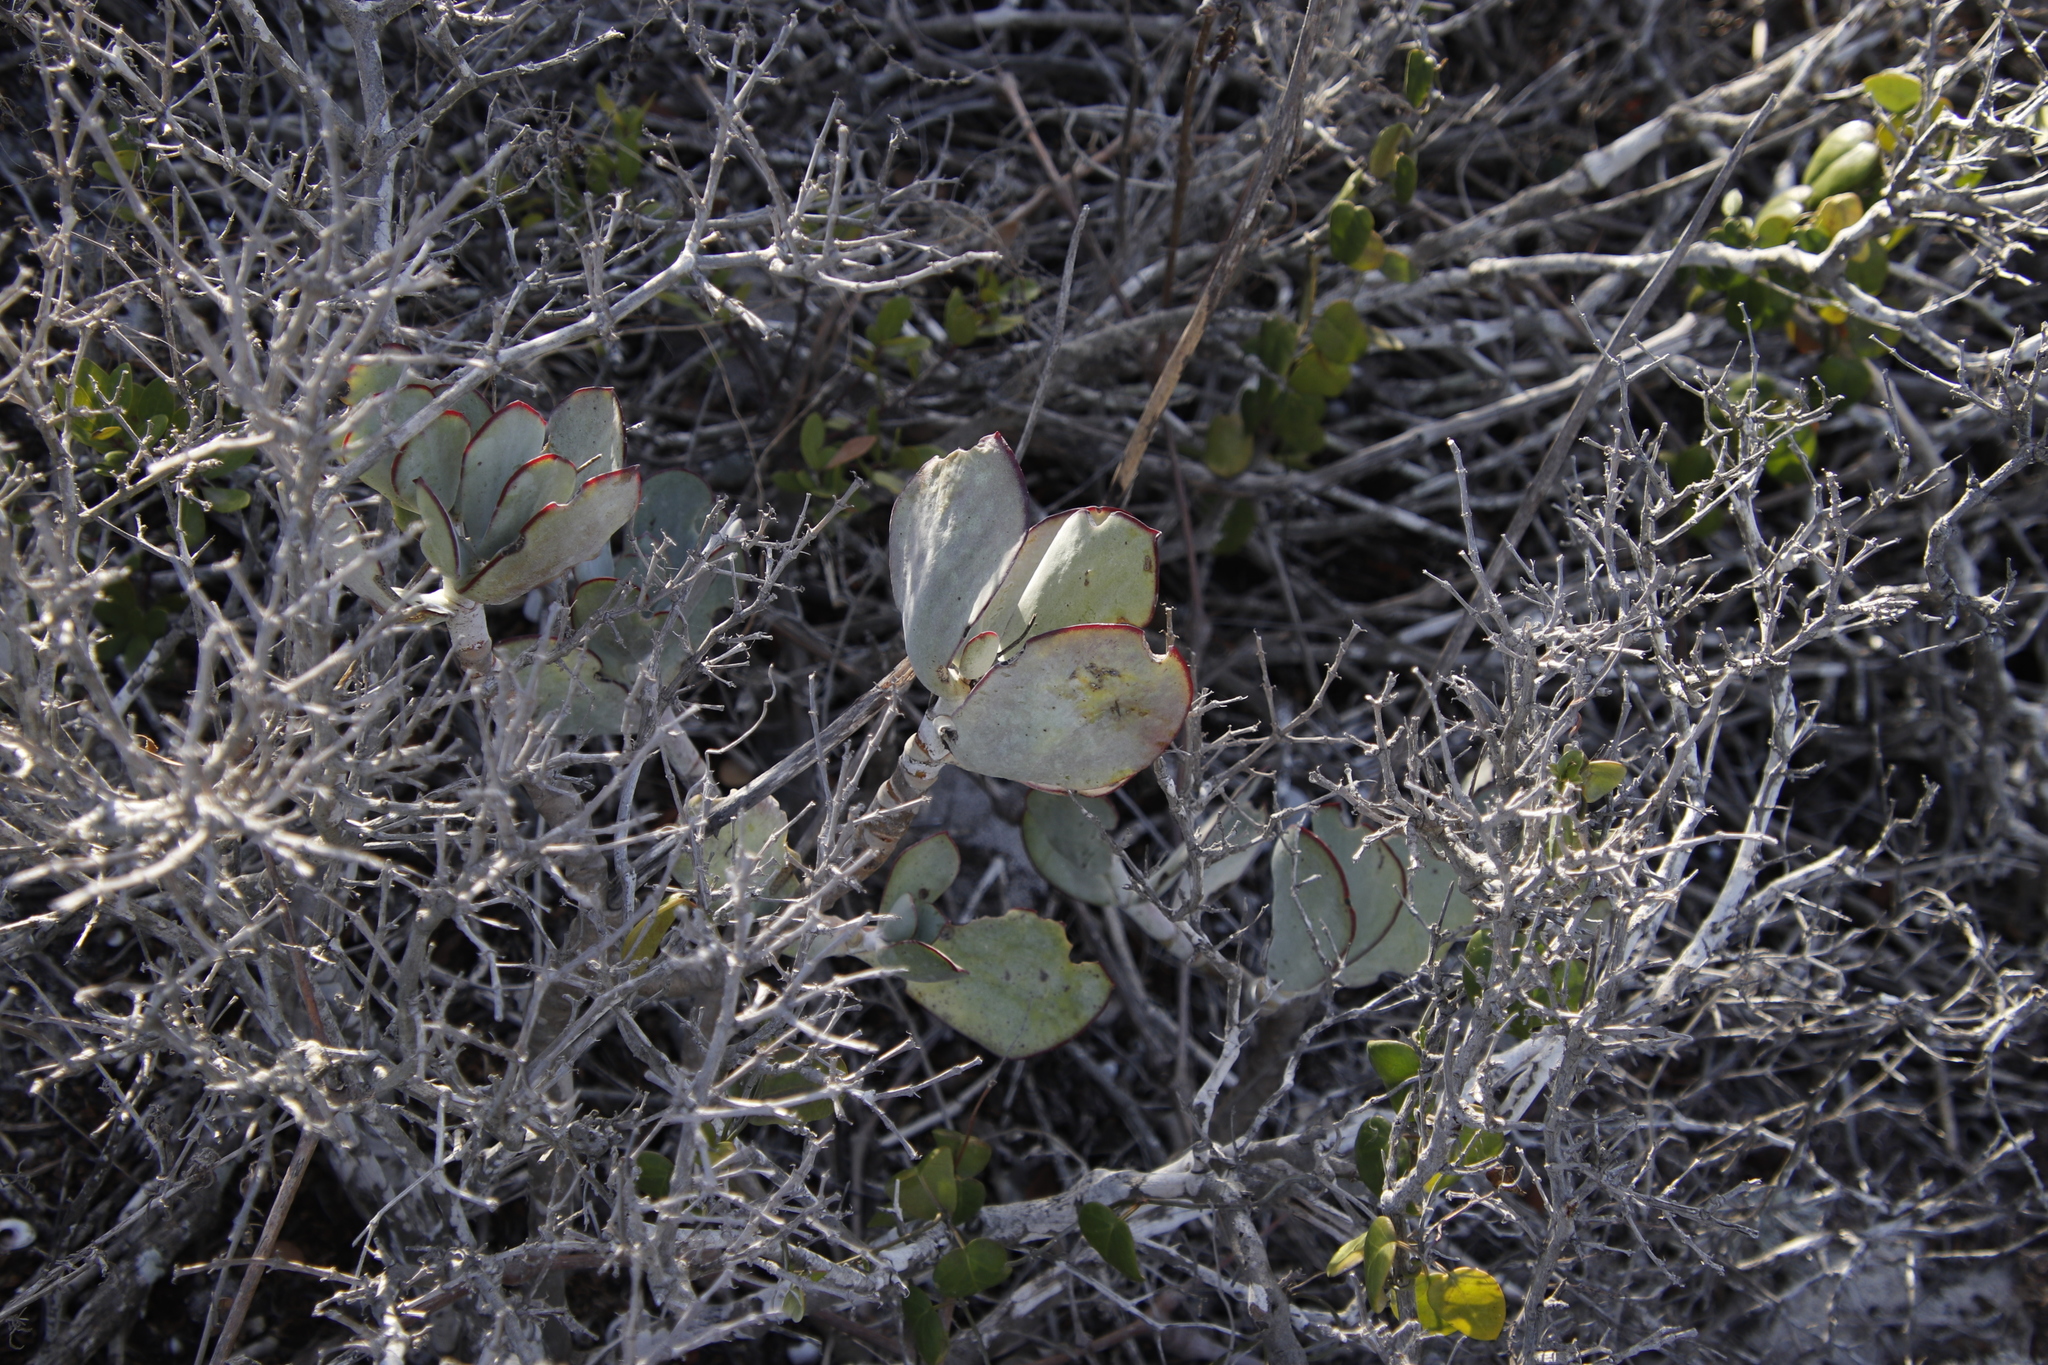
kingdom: Plantae
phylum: Tracheophyta
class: Magnoliopsida
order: Saxifragales
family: Crassulaceae
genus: Cotyledon
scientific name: Cotyledon orbiculata
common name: Pig's ear
